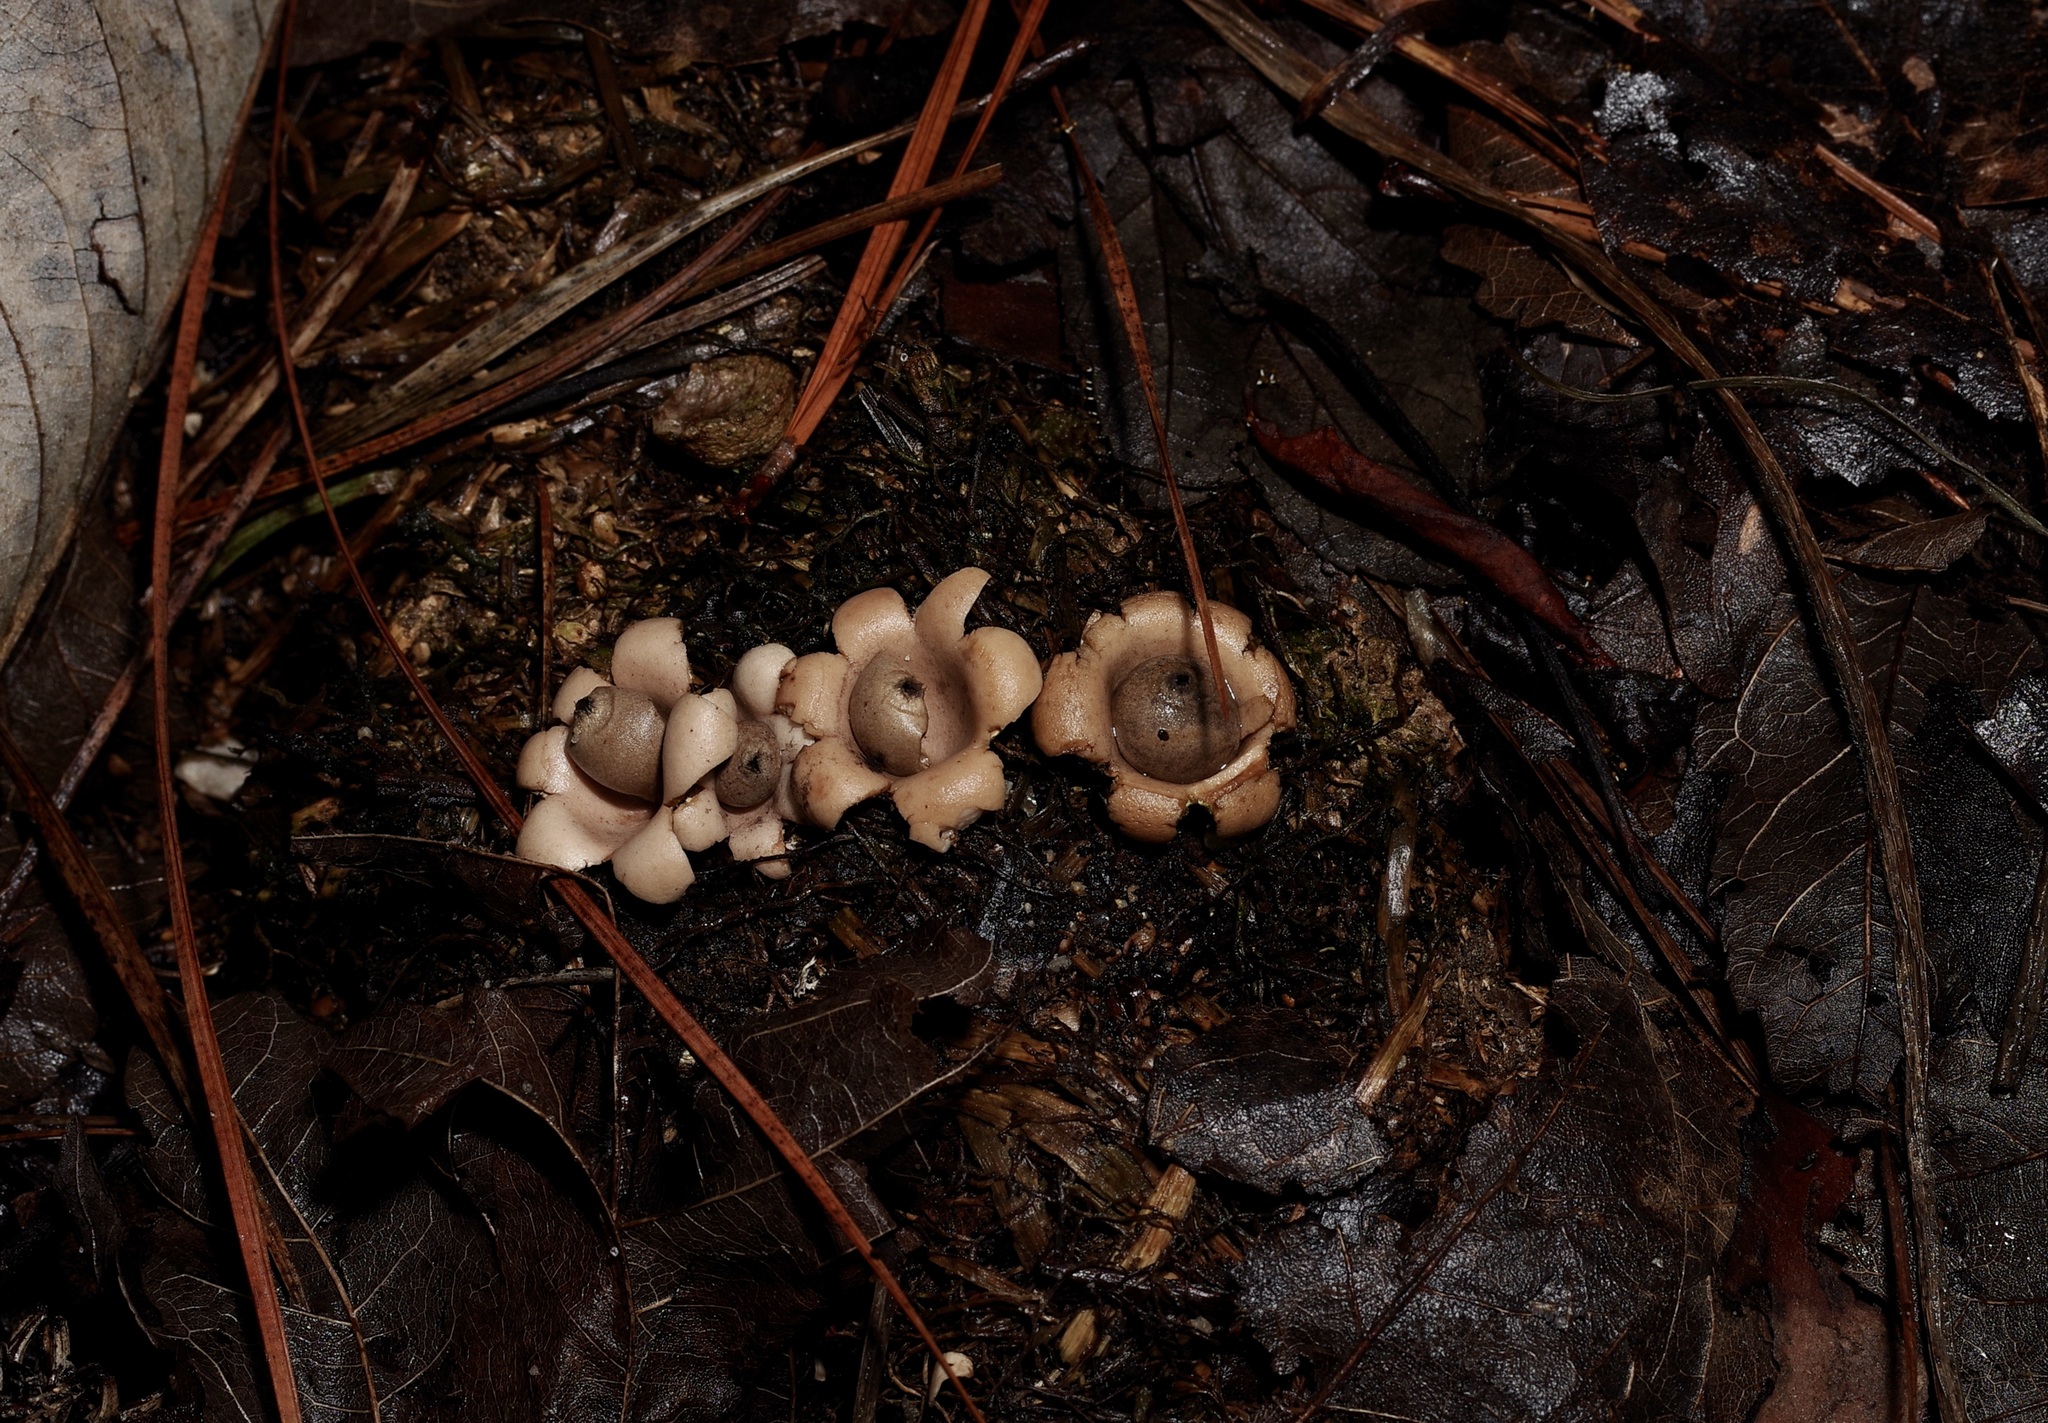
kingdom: Fungi
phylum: Basidiomycota
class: Agaricomycetes
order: Geastrales
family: Geastraceae
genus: Geastrum
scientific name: Geastrum saccatum
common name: Rounded earthstar
